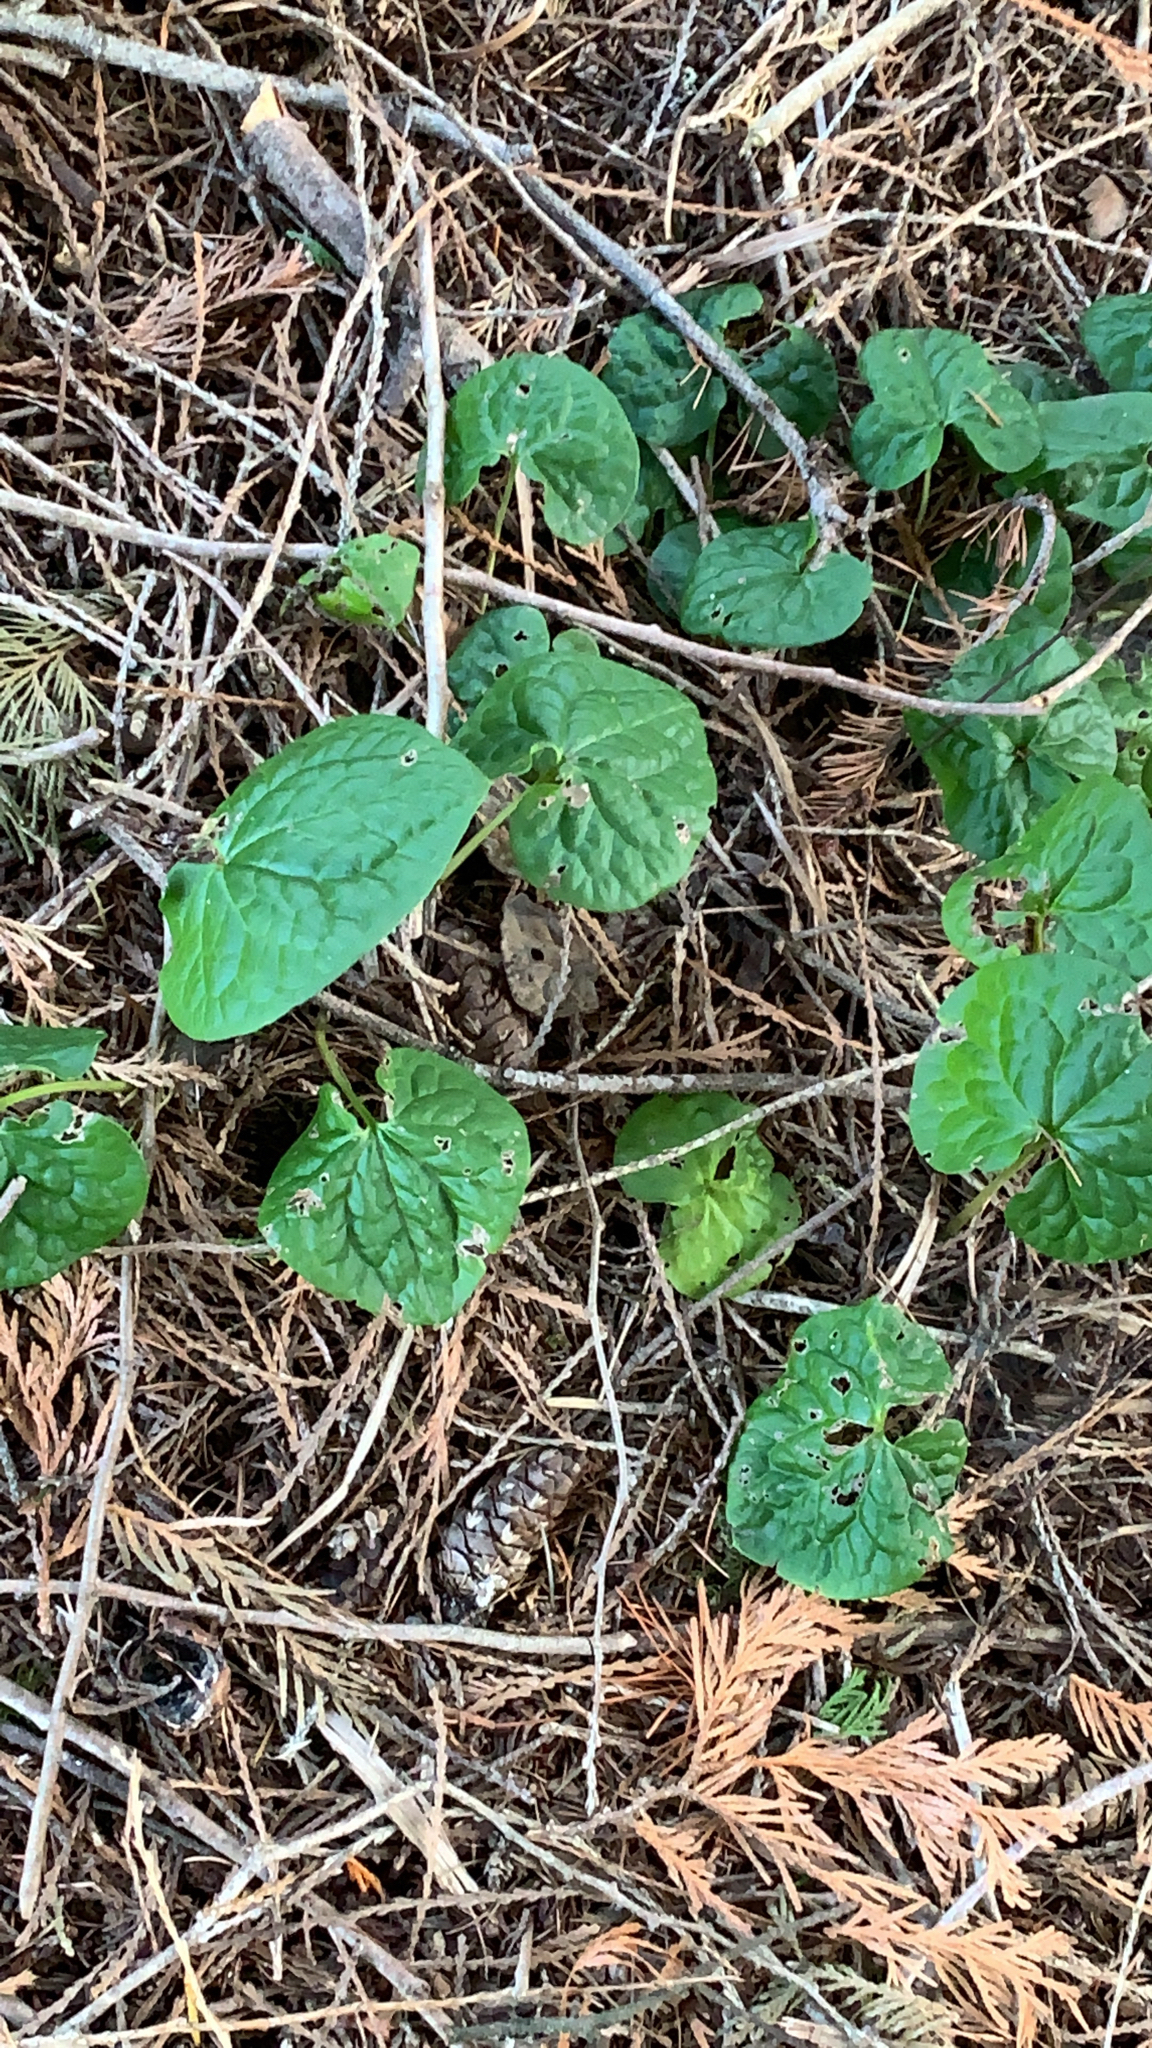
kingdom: Plantae
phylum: Tracheophyta
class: Magnoliopsida
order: Piperales
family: Aristolochiaceae
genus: Asarum
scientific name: Asarum caudatum
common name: Wild ginger
